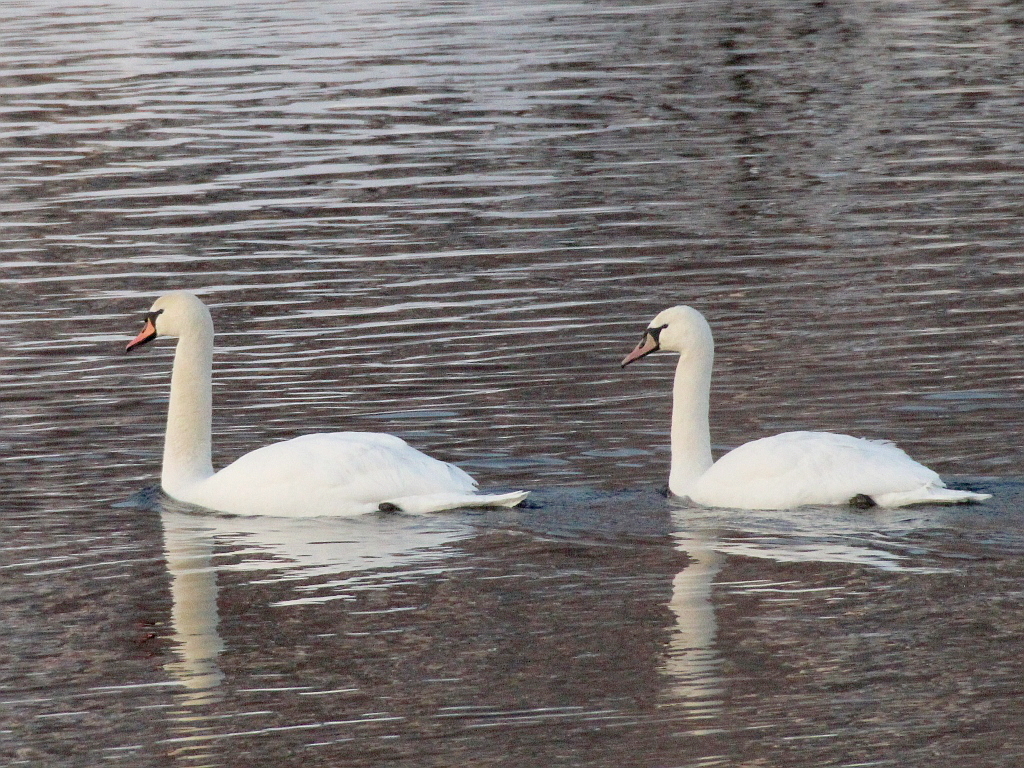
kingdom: Animalia
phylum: Chordata
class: Aves
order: Anseriformes
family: Anatidae
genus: Cygnus
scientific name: Cygnus olor
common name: Mute swan
